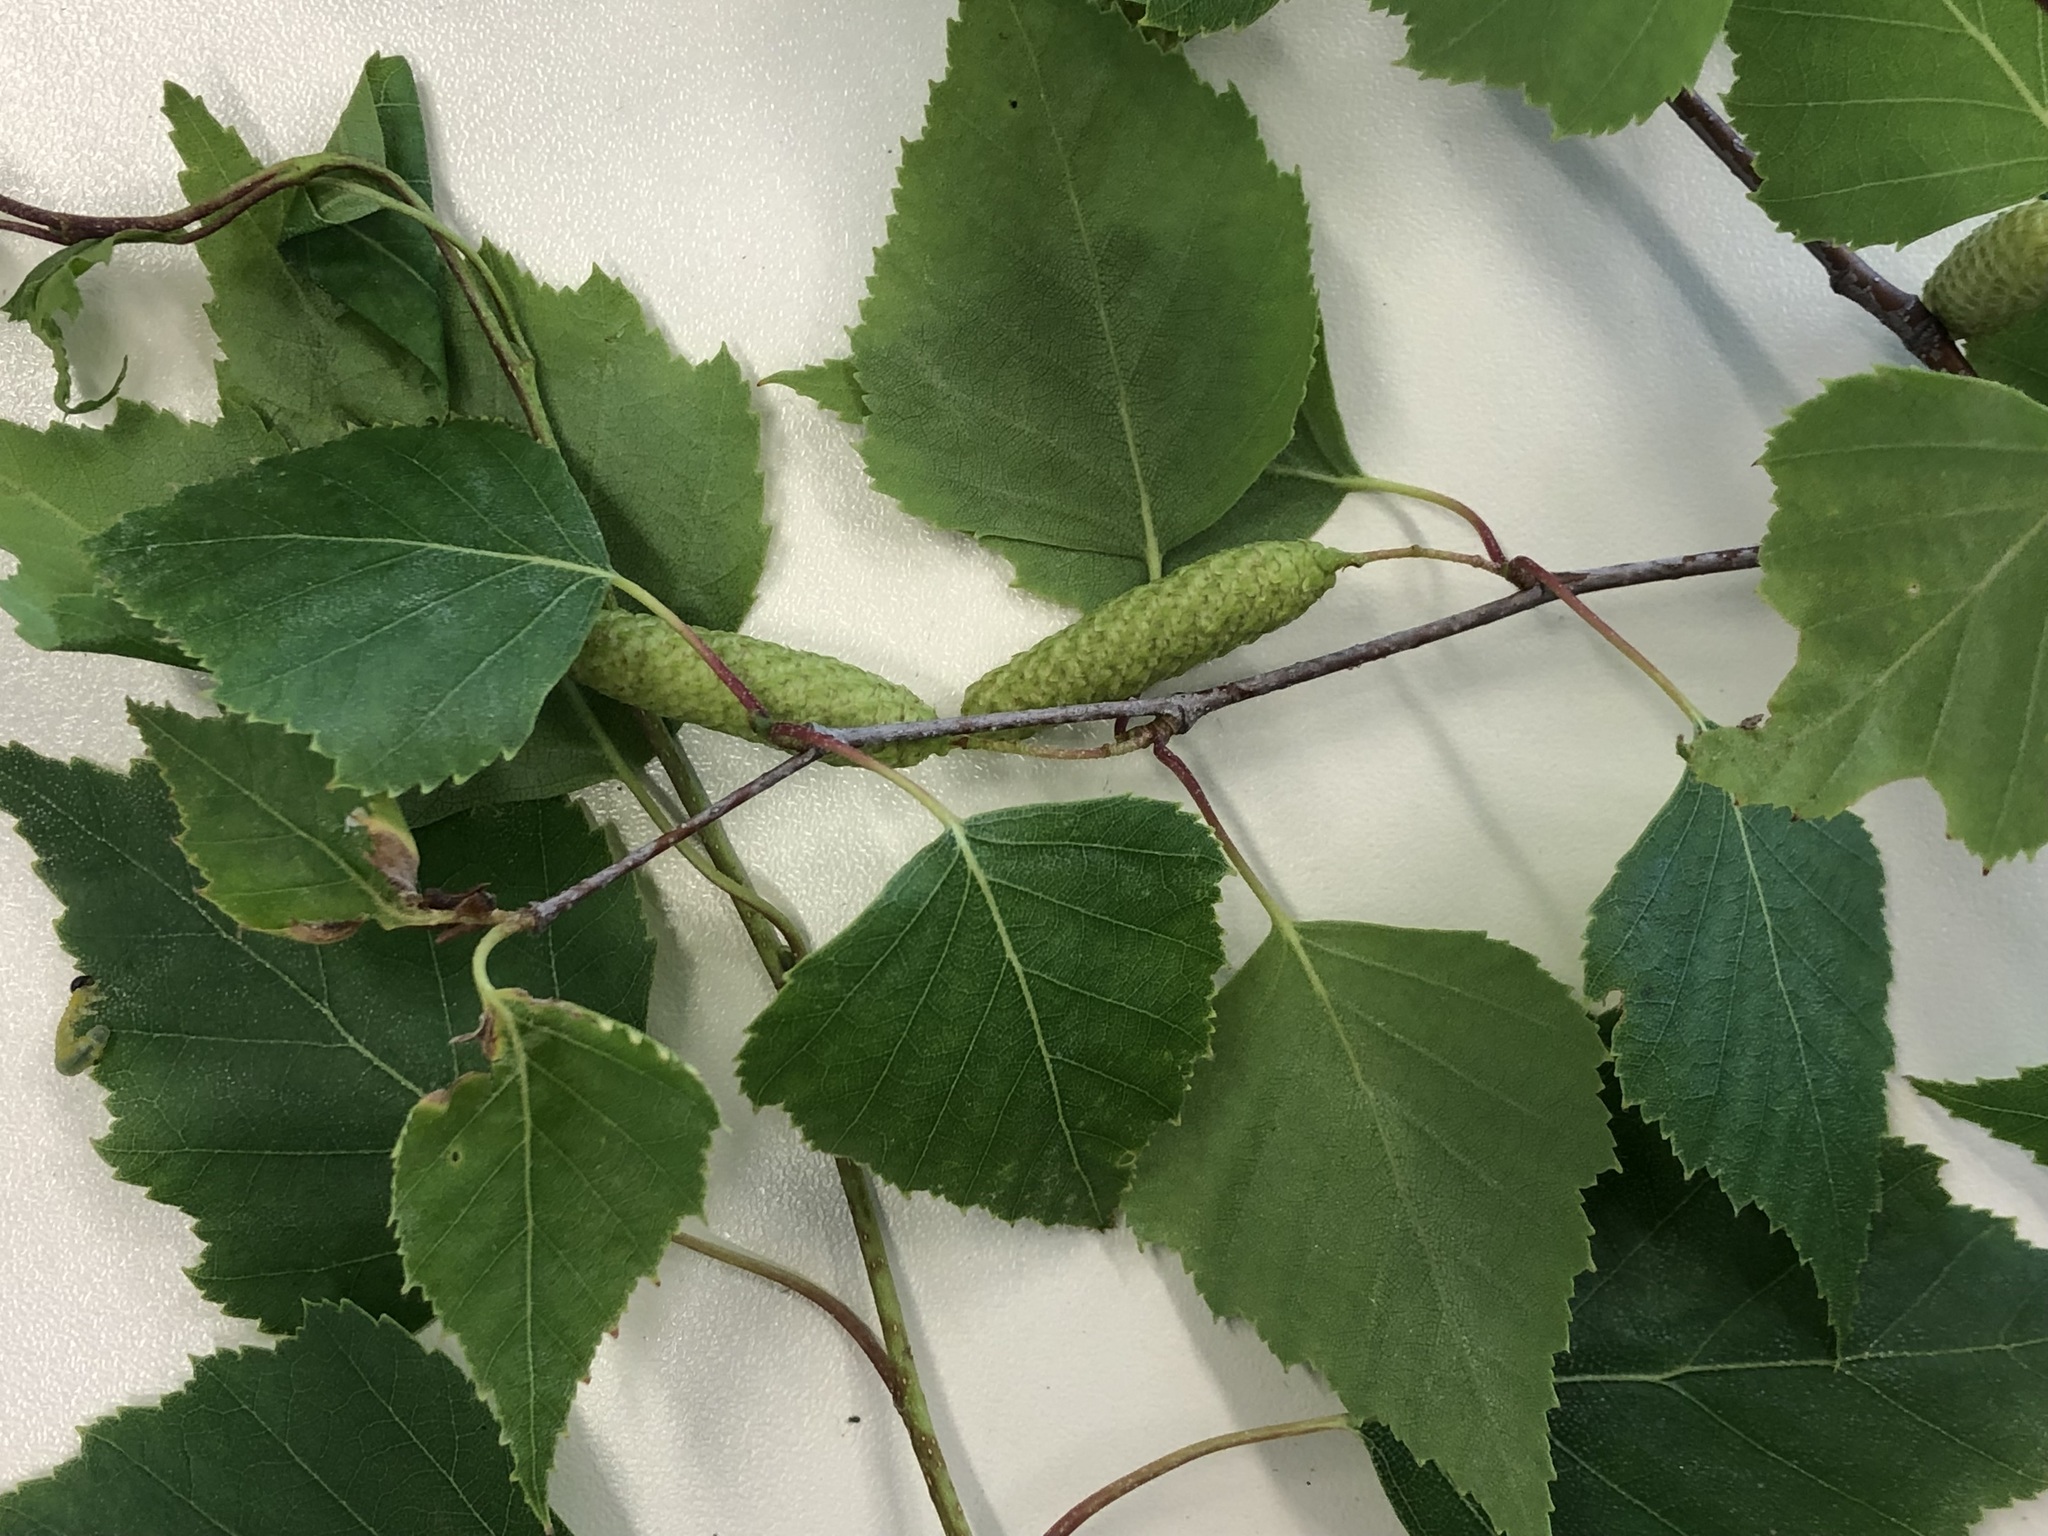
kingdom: Plantae
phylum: Tracheophyta
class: Magnoliopsida
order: Fagales
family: Betulaceae
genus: Betula
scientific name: Betula pendula
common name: Silver birch
